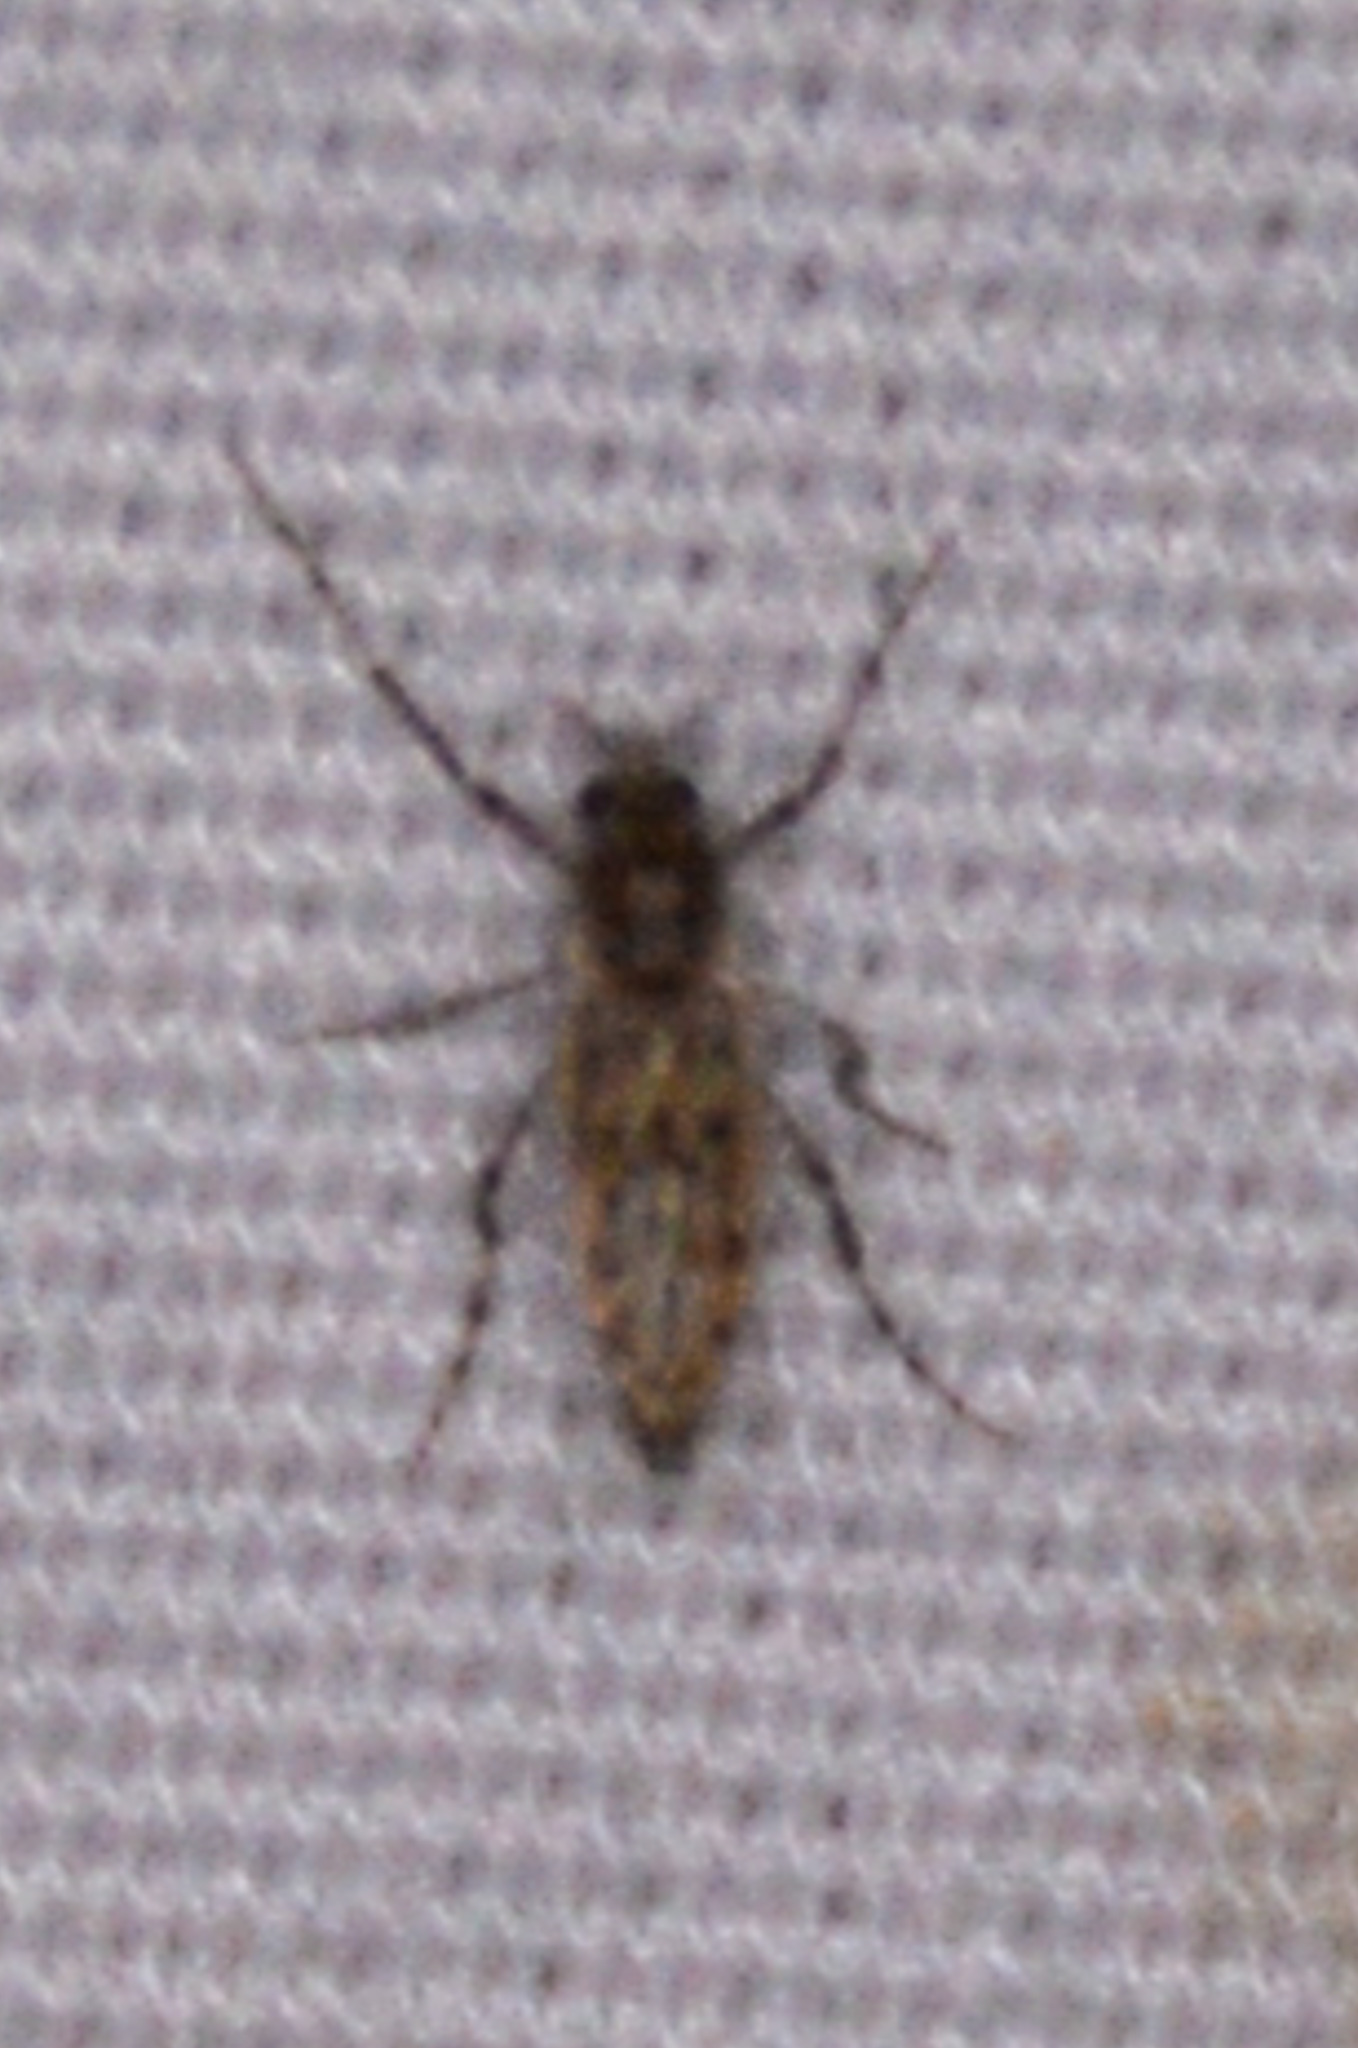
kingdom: Animalia
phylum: Arthropoda
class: Insecta
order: Diptera
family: Chaoboridae
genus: Chaoborus
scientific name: Chaoborus punctipennis
